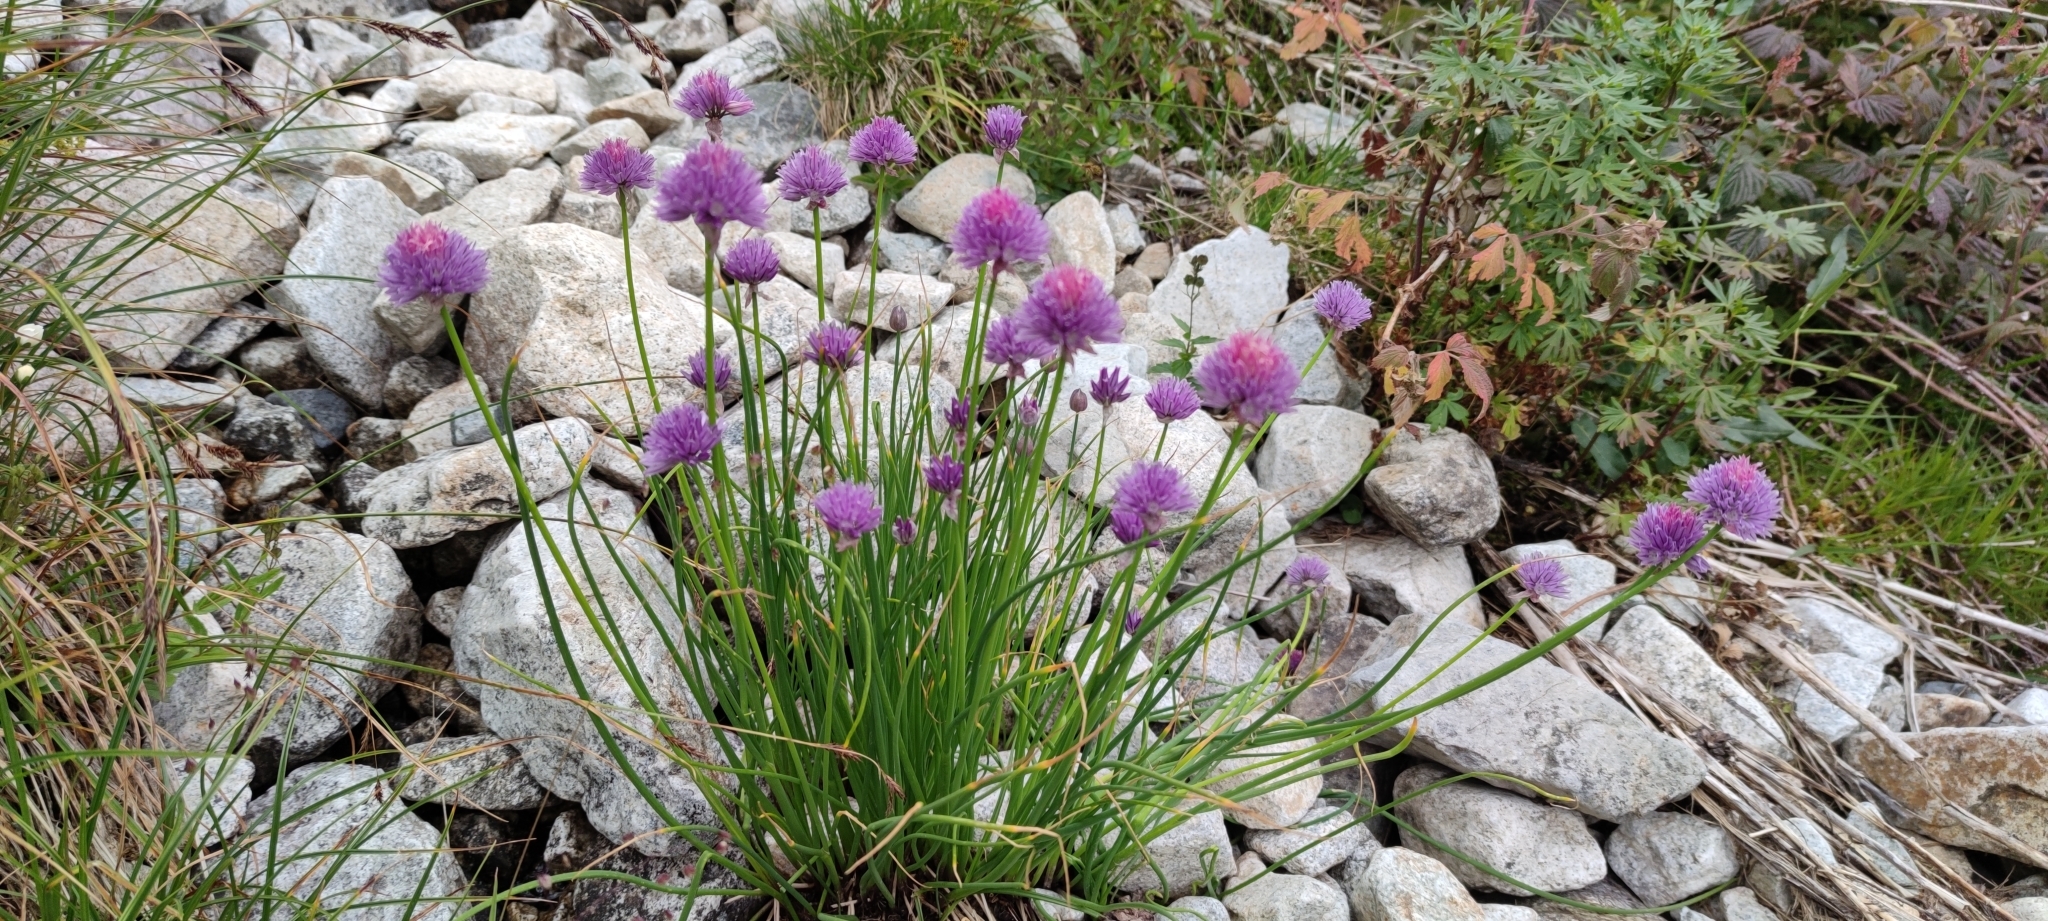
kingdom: Plantae
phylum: Tracheophyta
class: Liliopsida
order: Asparagales
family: Amaryllidaceae
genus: Allium
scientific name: Allium schoenoprasum
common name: Chives
